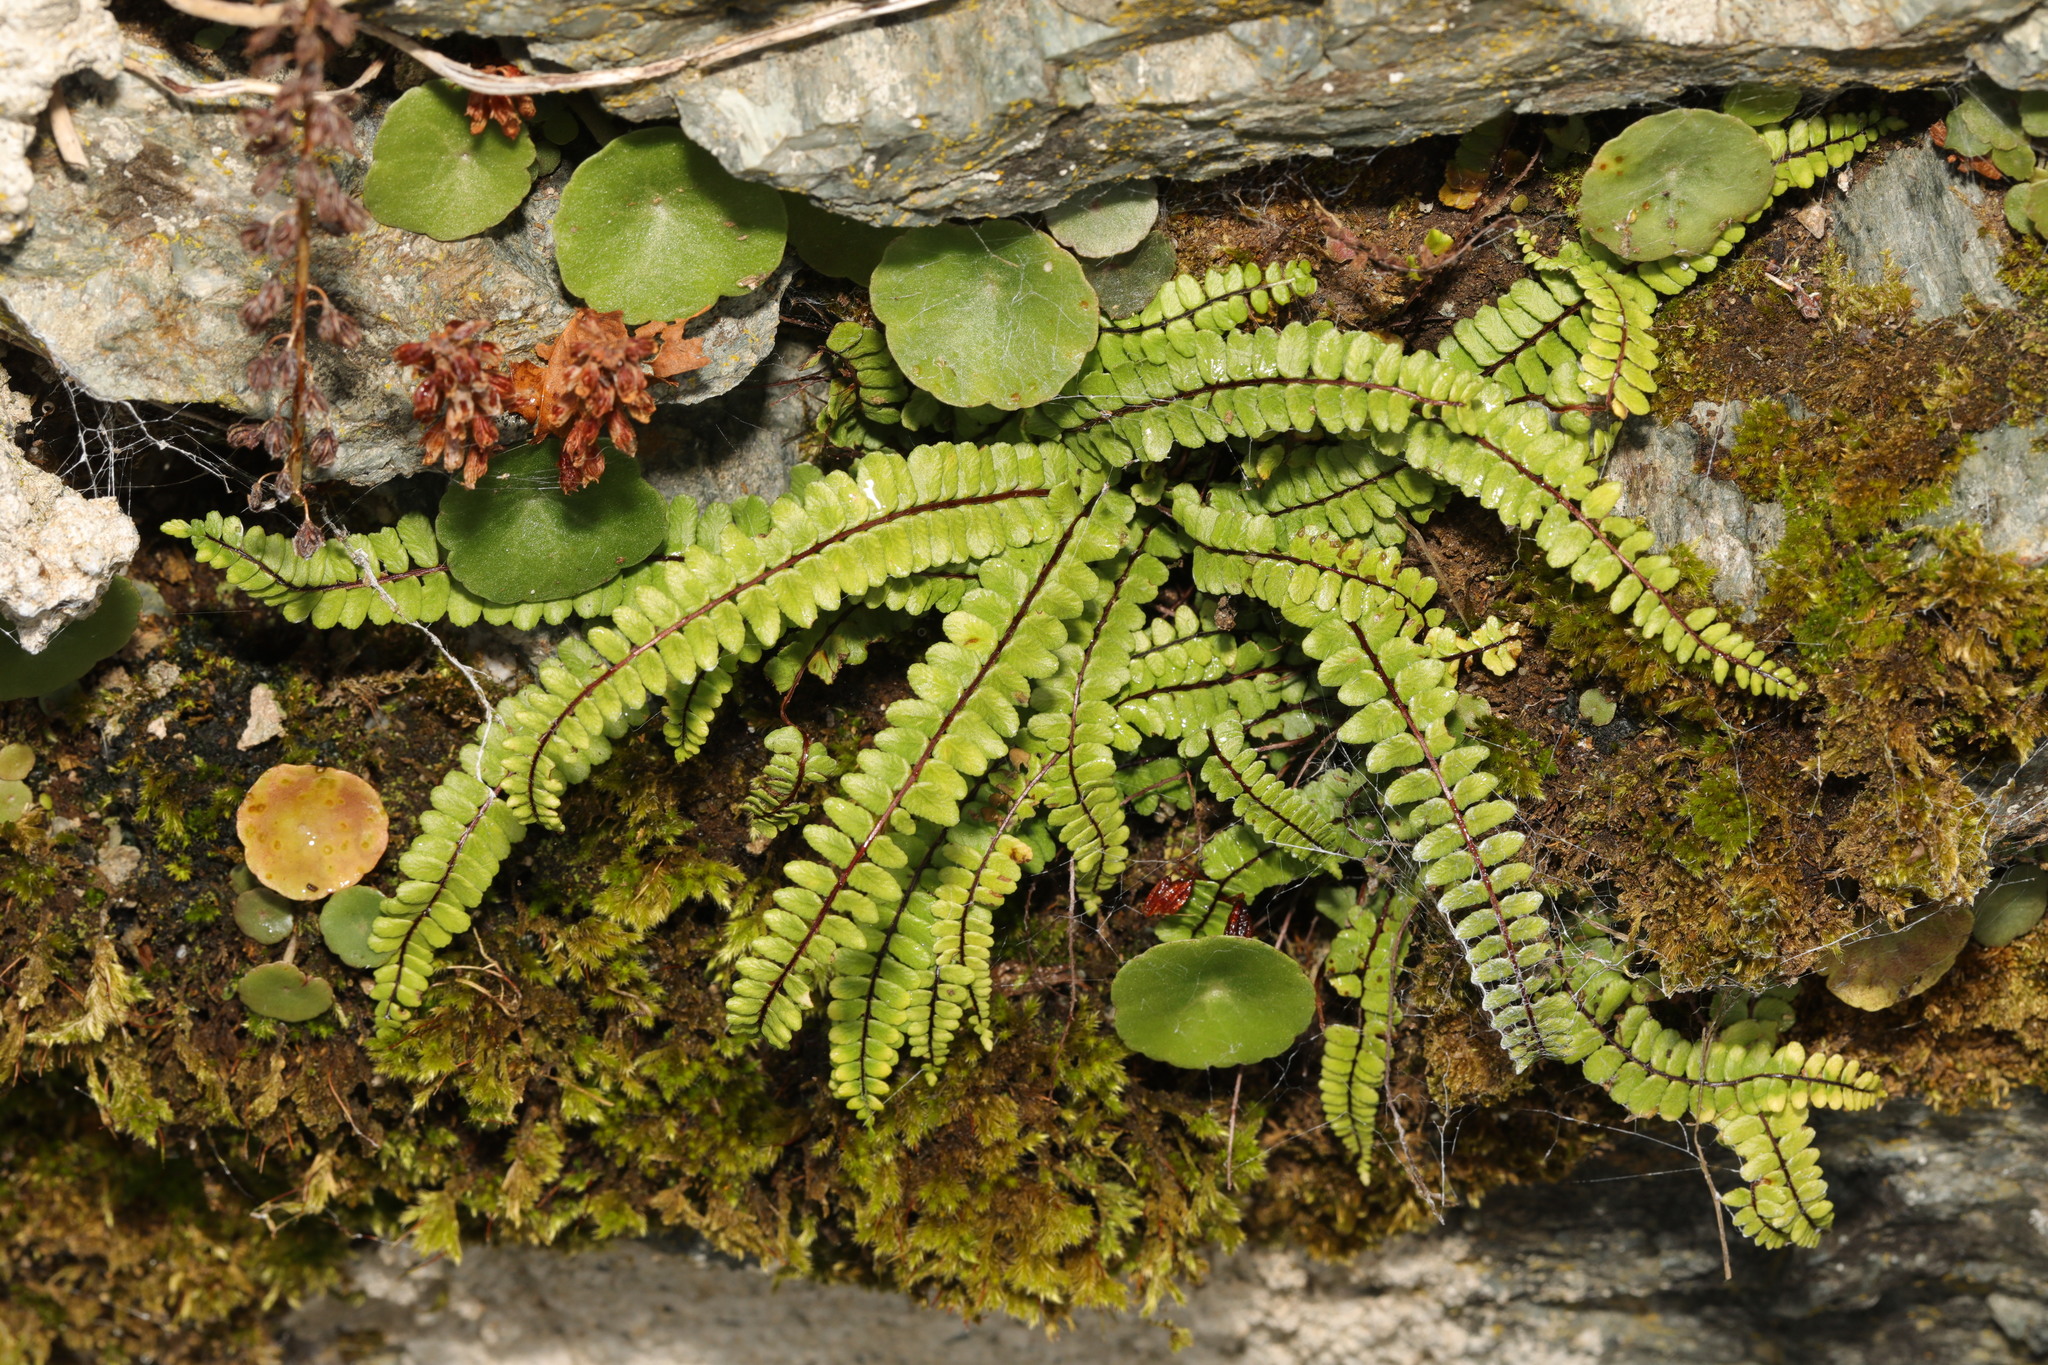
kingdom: Plantae
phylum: Tracheophyta
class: Polypodiopsida
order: Polypodiales
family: Aspleniaceae
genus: Asplenium
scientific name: Asplenium trichomanes
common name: Maidenhair spleenwort
